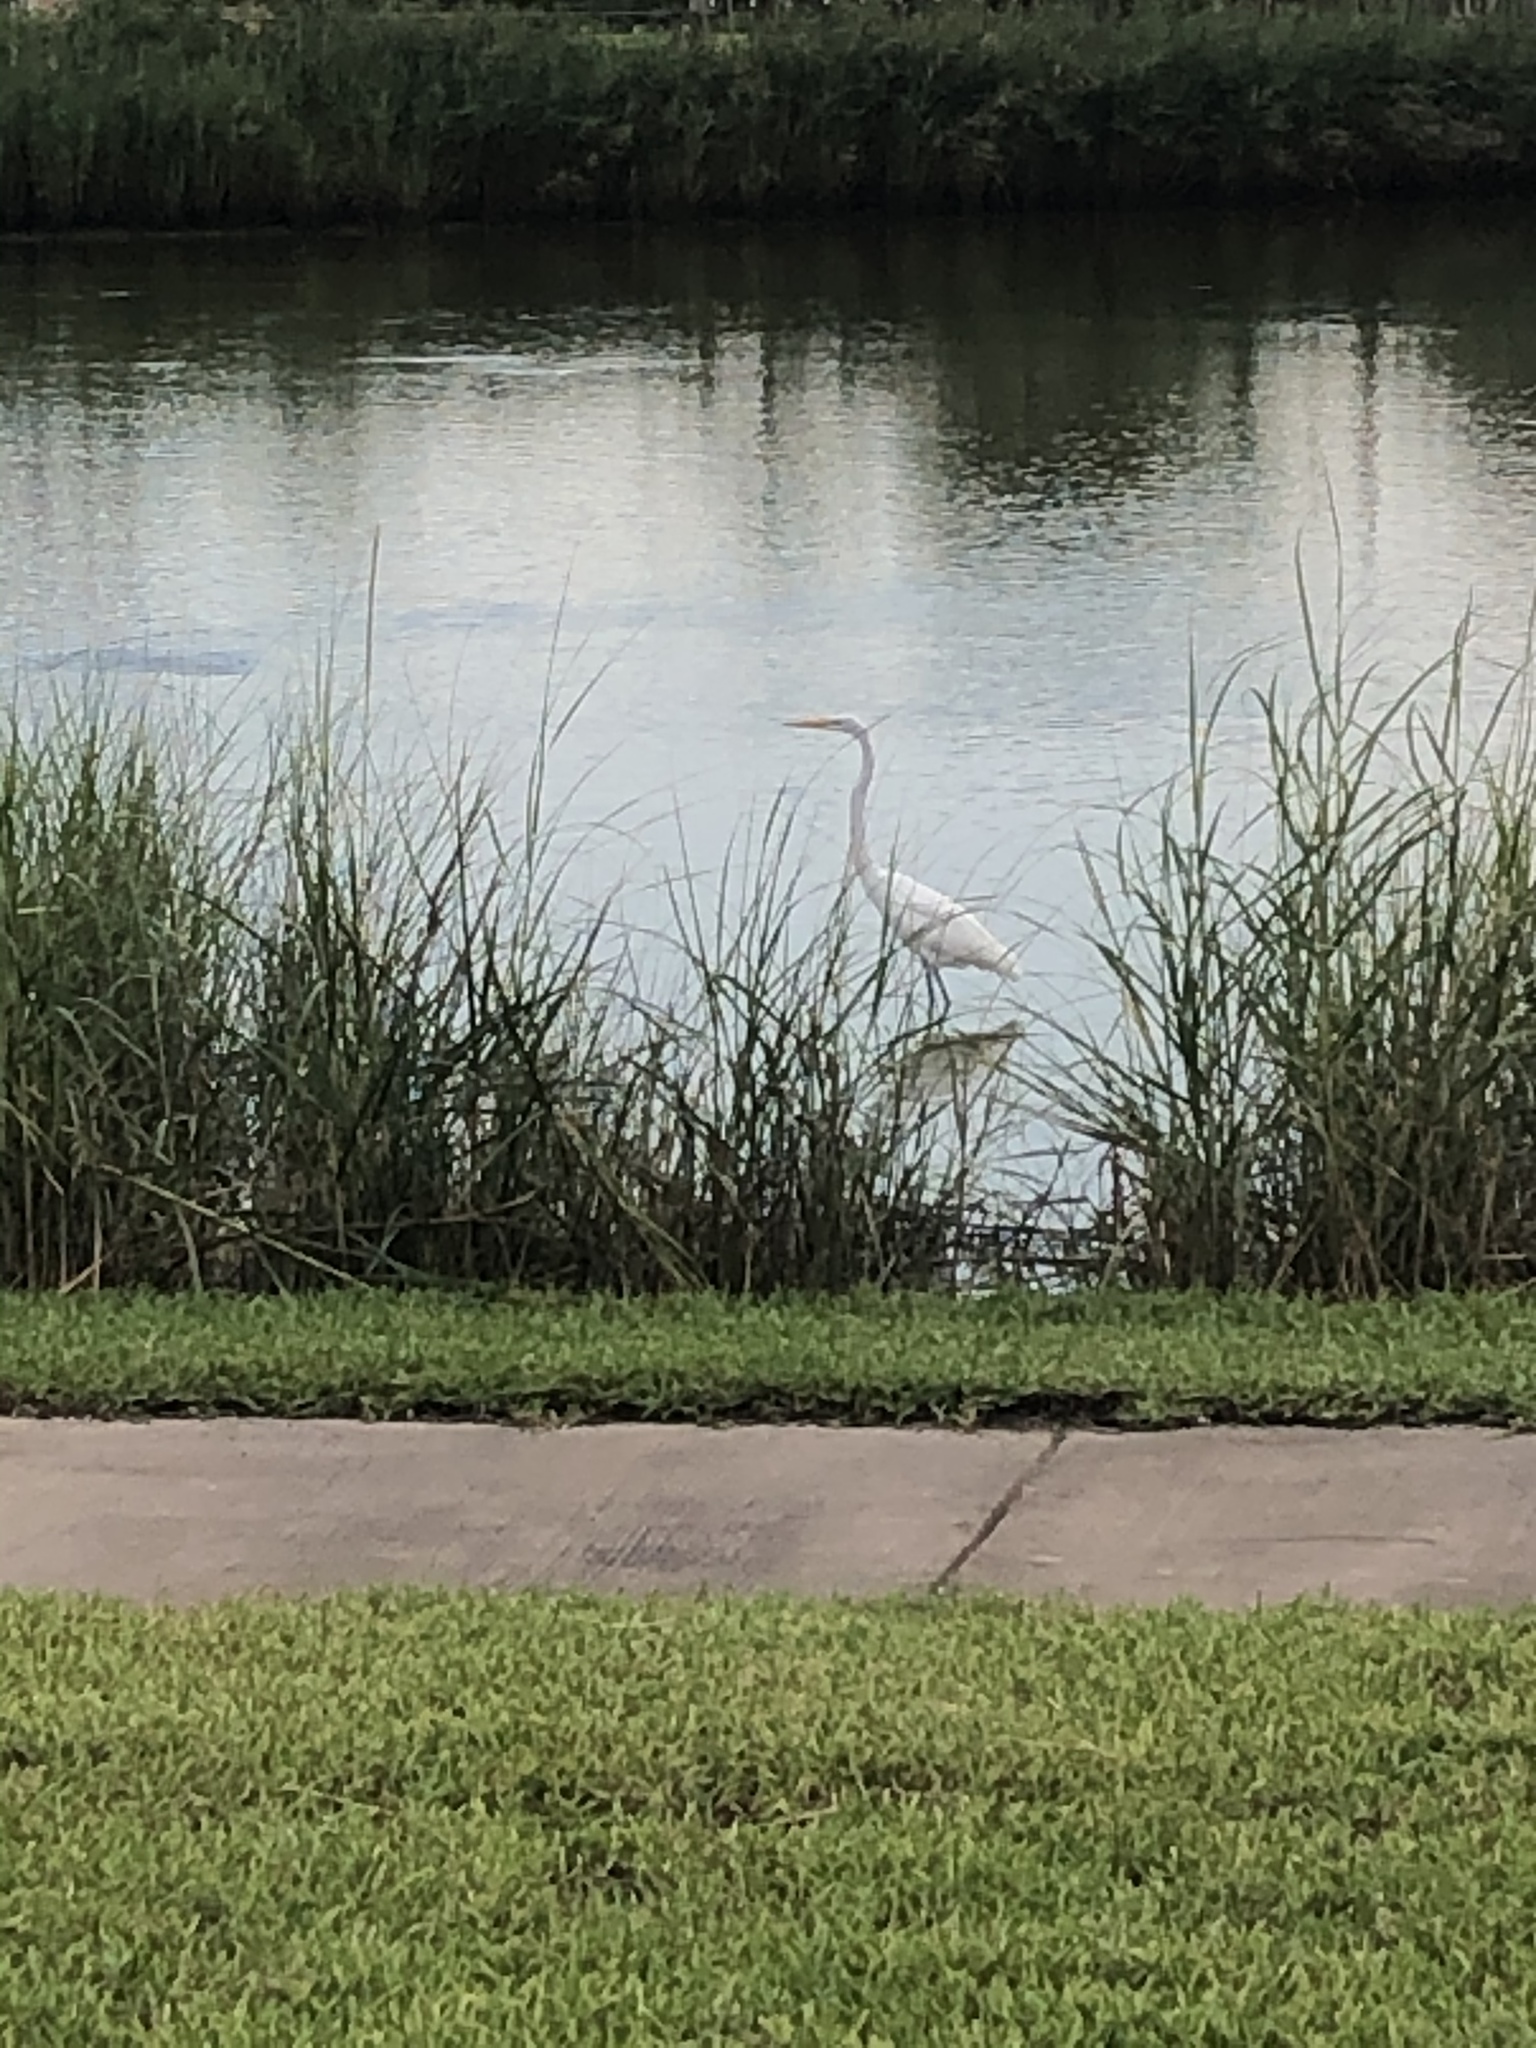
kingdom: Animalia
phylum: Chordata
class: Aves
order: Pelecaniformes
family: Ardeidae
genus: Ardea
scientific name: Ardea alba
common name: Great egret
